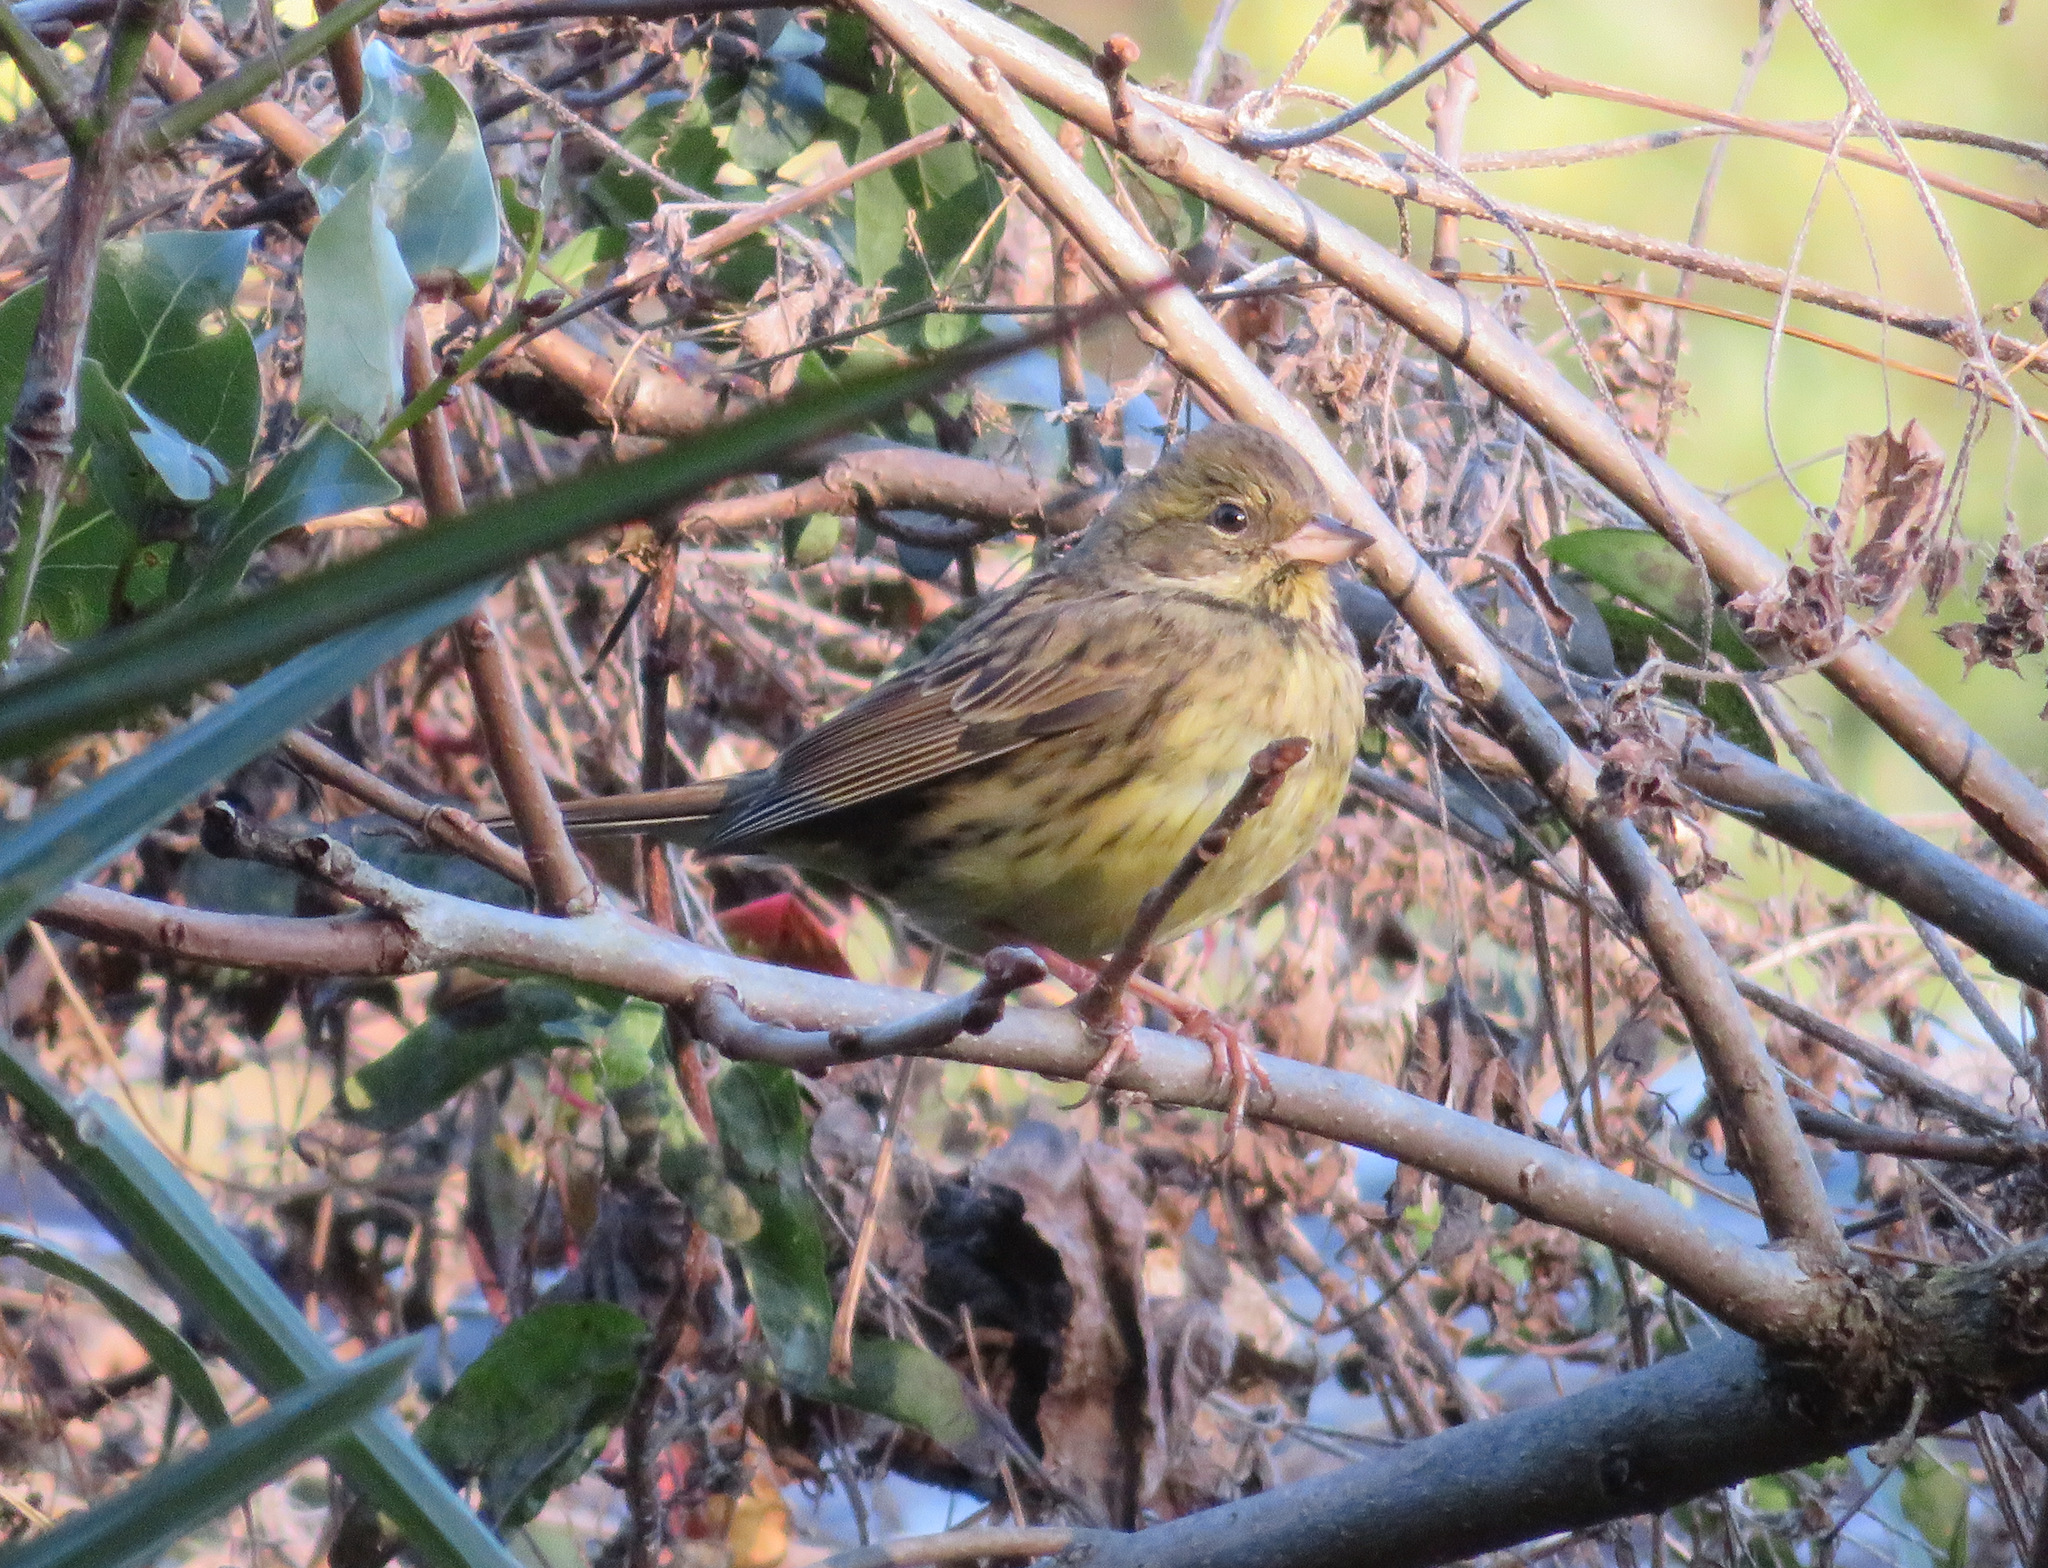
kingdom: Animalia
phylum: Chordata
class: Aves
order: Passeriformes
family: Emberizidae
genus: Emberiza
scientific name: Emberiza personata
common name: Masked bunting
